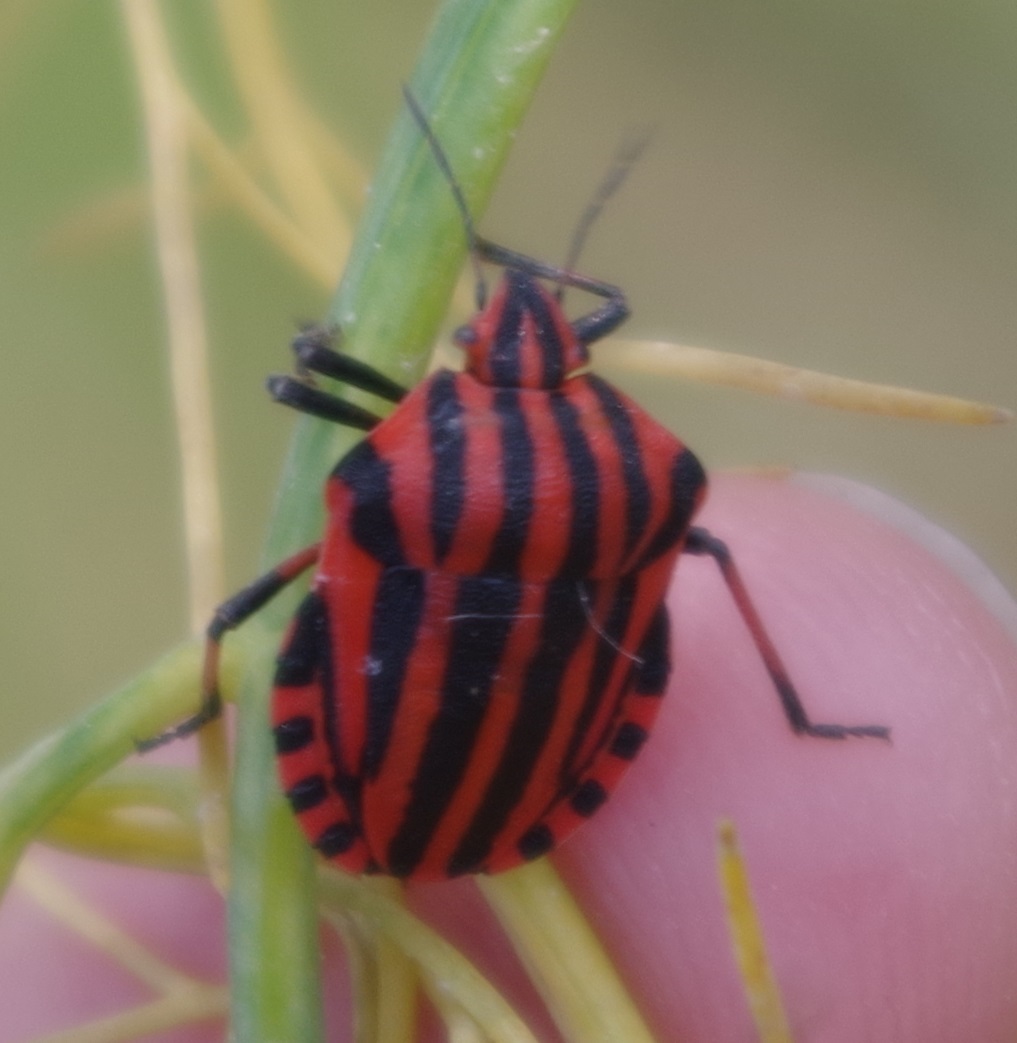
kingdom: Animalia
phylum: Arthropoda
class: Insecta
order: Hemiptera
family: Pentatomidae
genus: Graphosoma
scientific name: Graphosoma italicum
